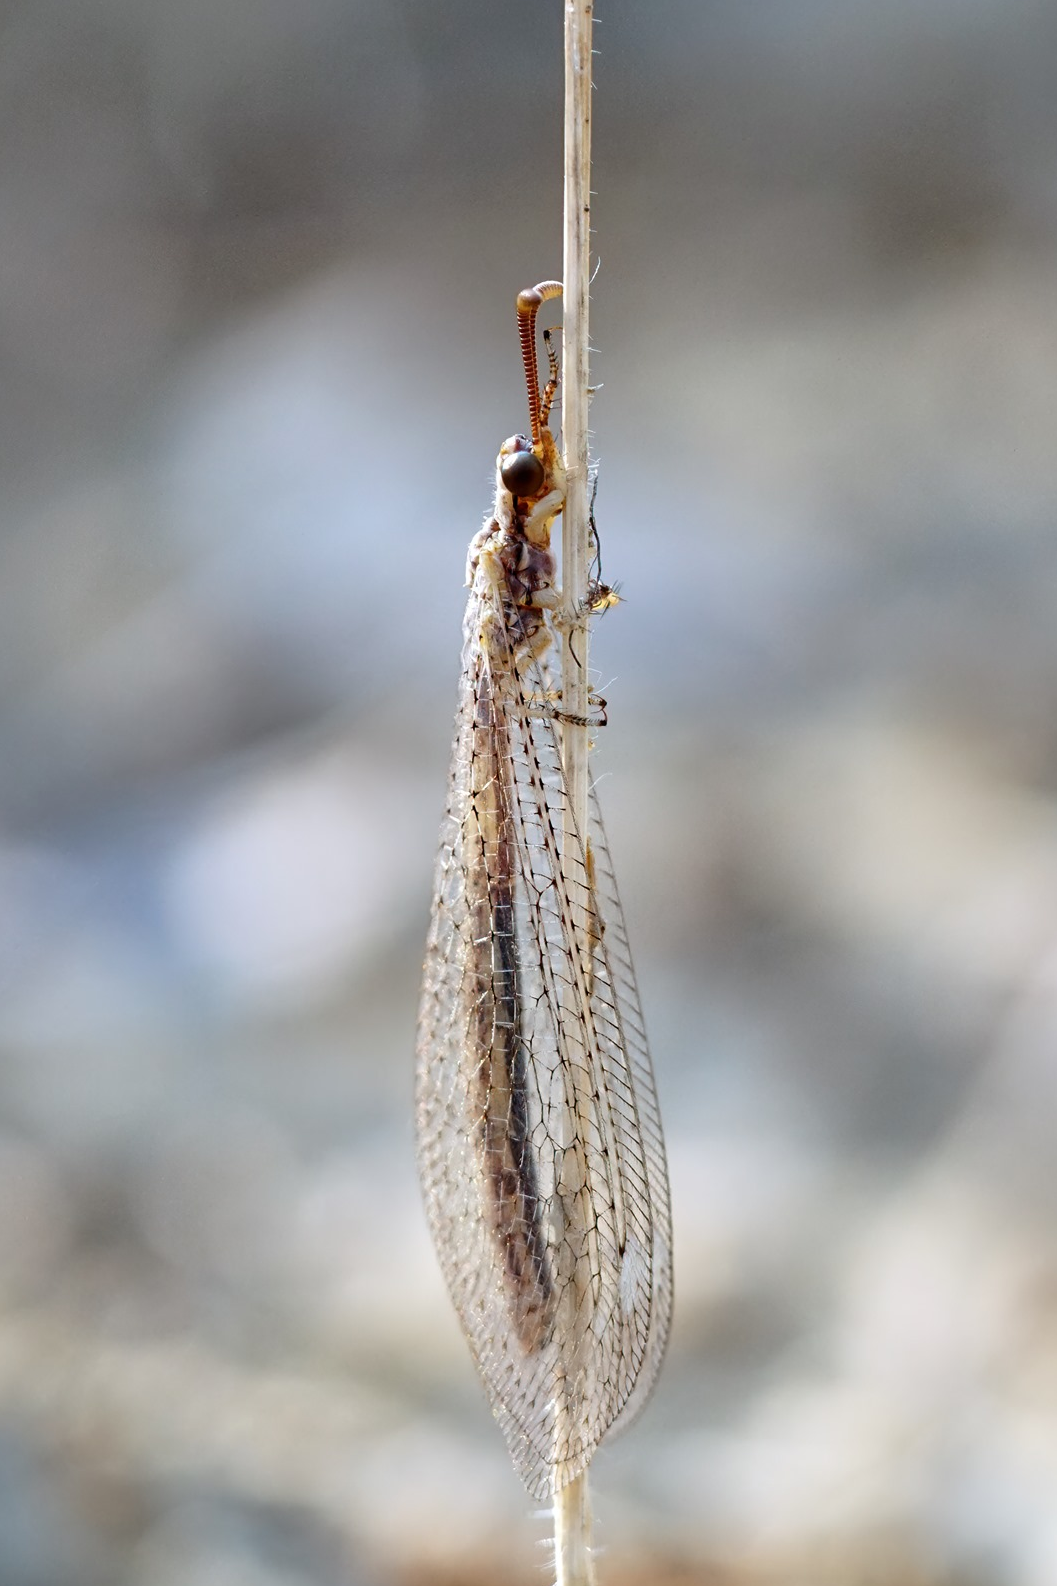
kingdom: Animalia
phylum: Arthropoda
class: Insecta
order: Neuroptera
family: Myrmeleontidae
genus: Macronemurus
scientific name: Macronemurus bilineatus
